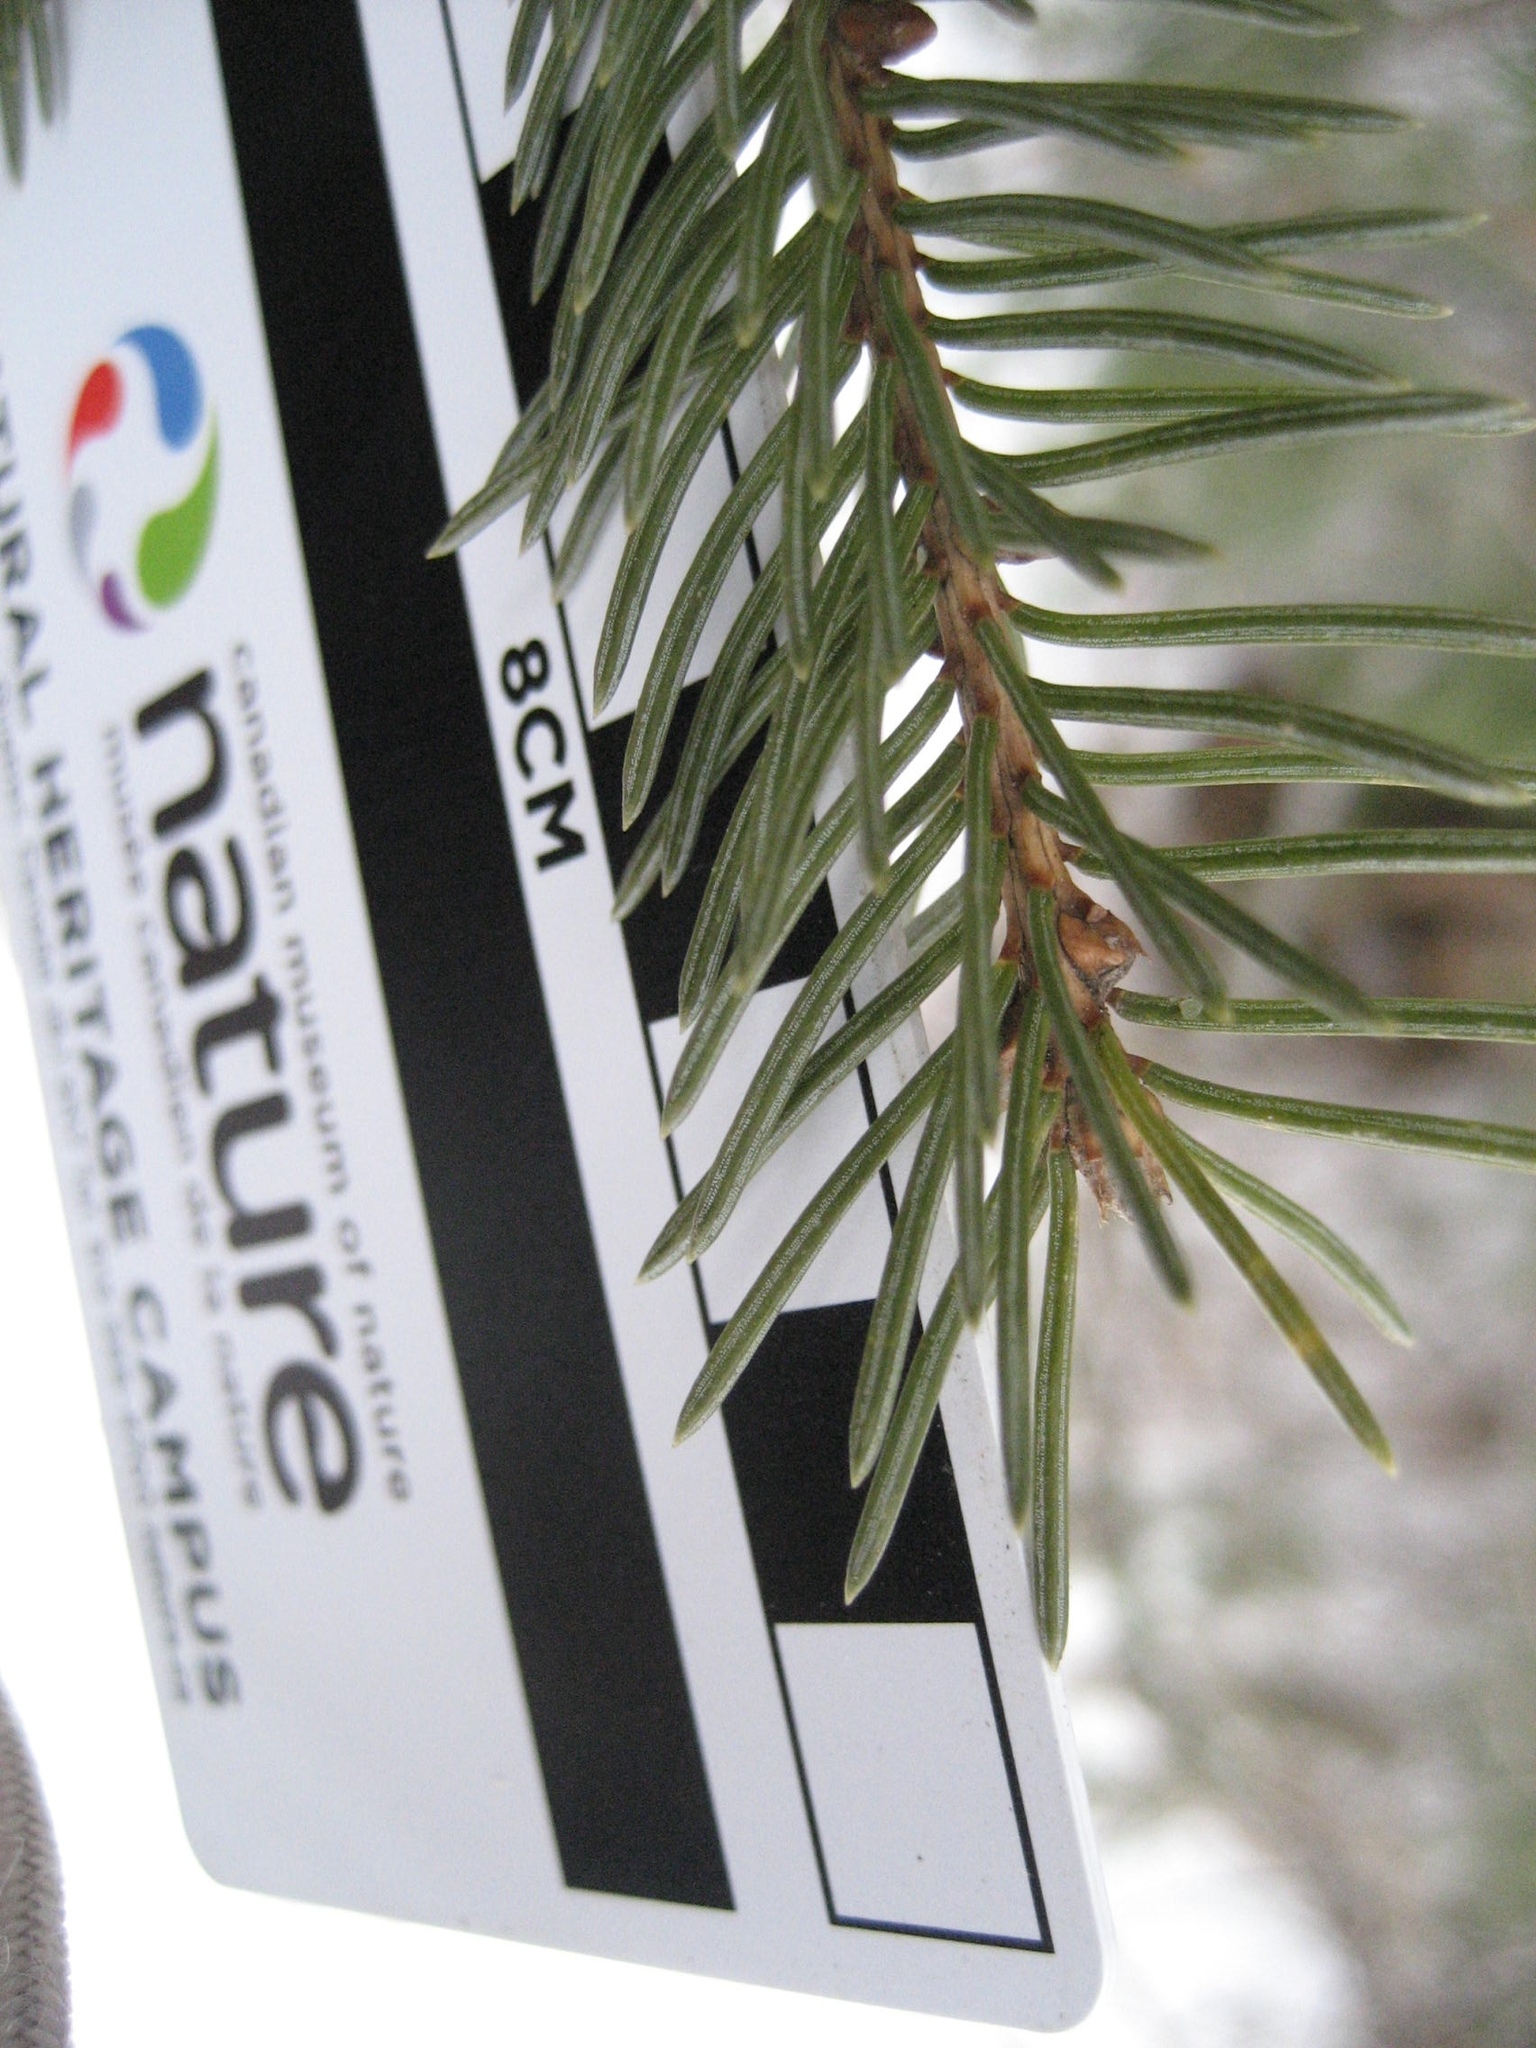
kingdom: Plantae
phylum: Tracheophyta
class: Pinopsida
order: Pinales
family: Pinaceae
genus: Picea
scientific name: Picea glauca
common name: White spruce
